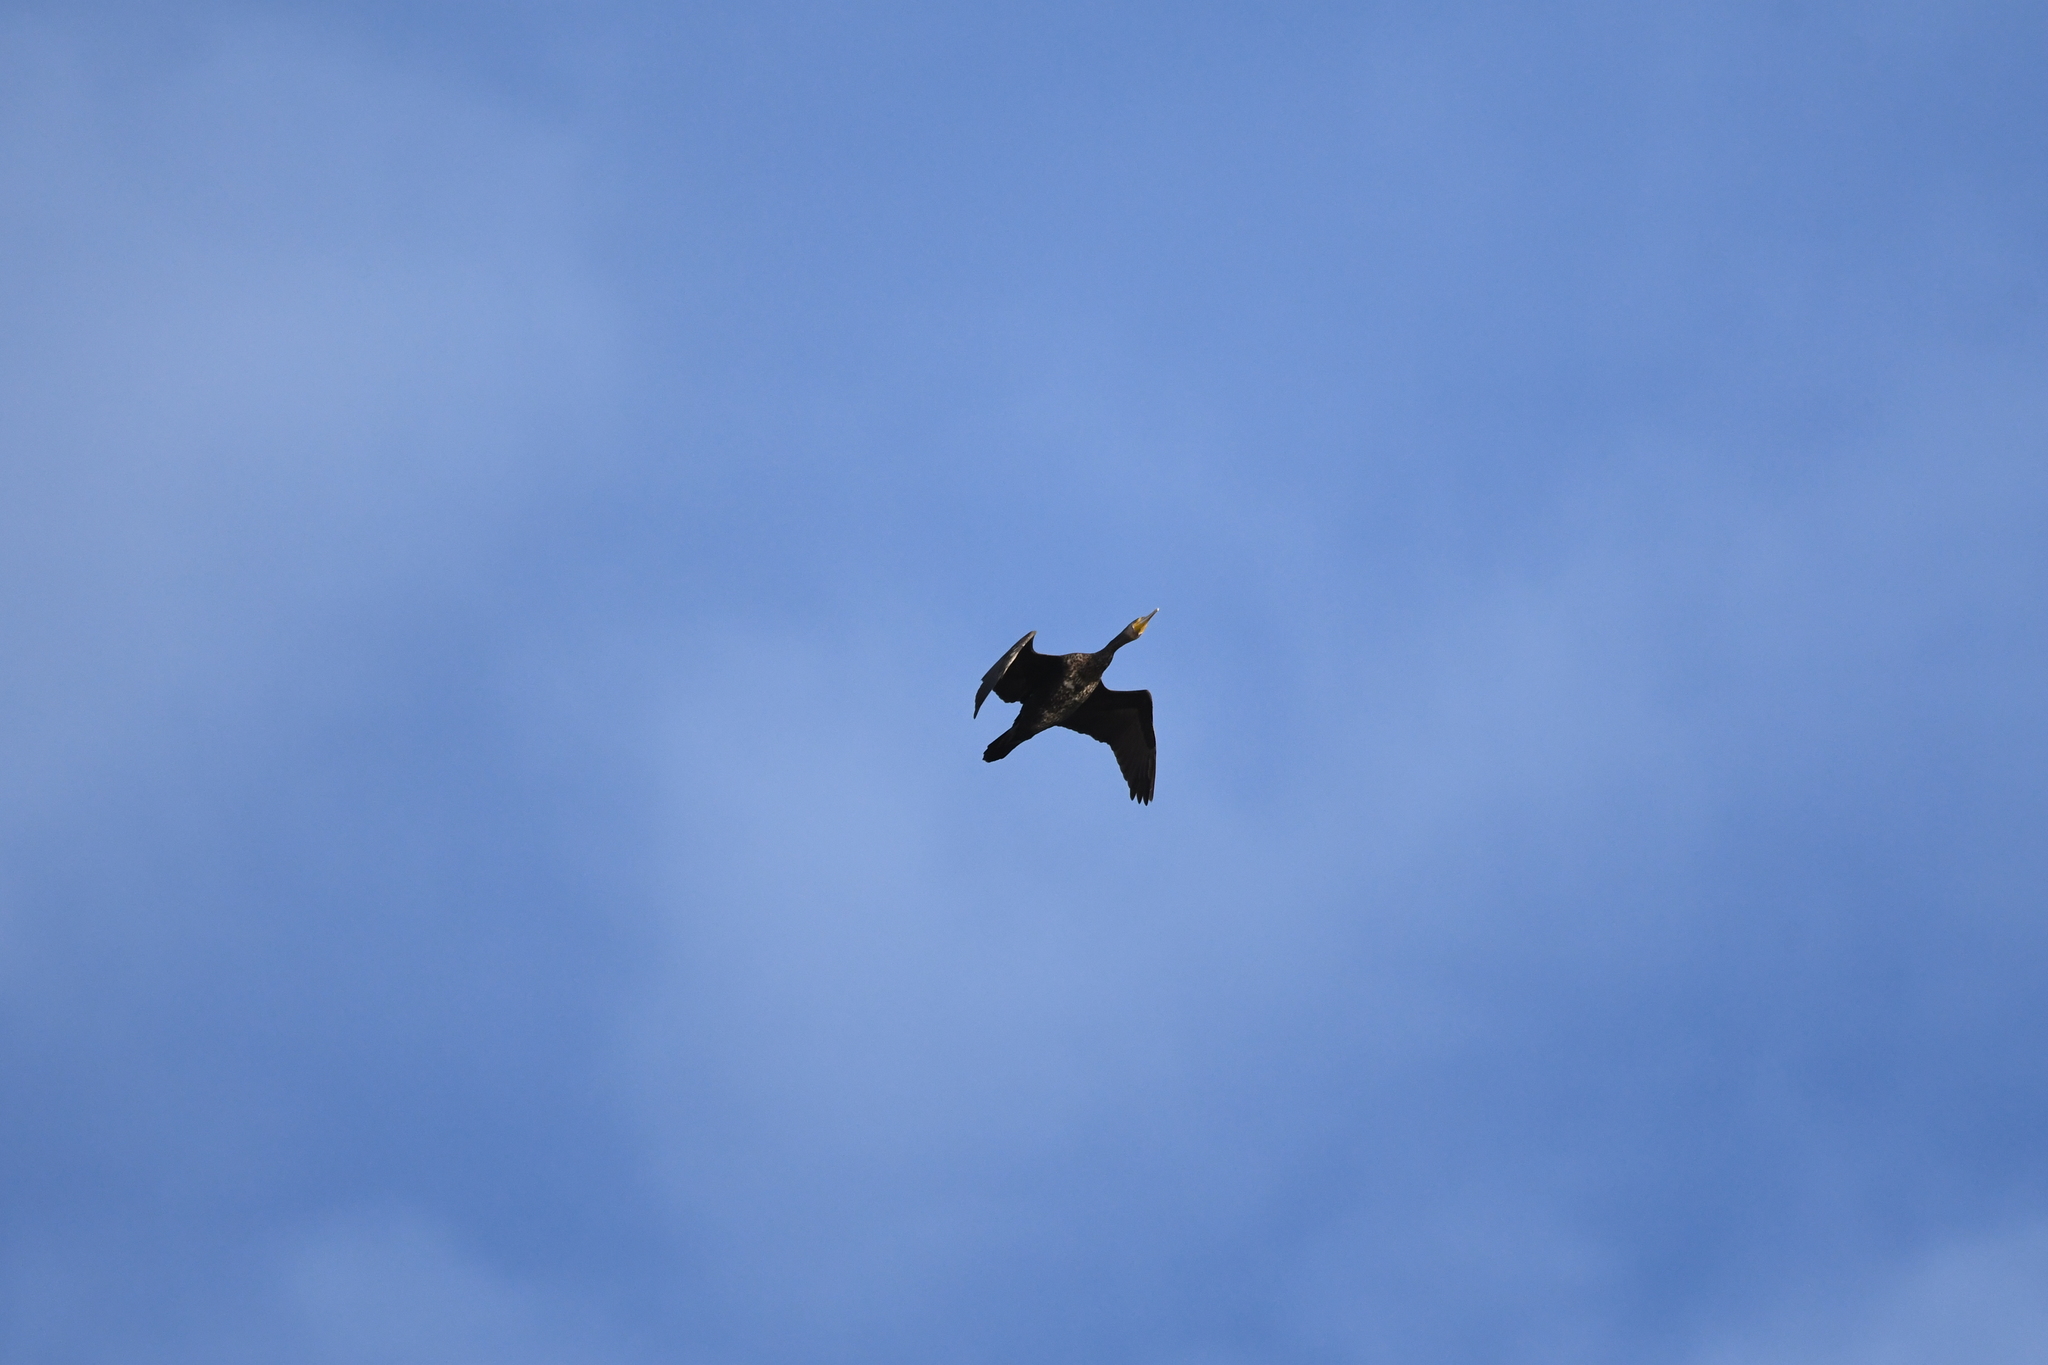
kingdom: Animalia
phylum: Chordata
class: Aves
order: Suliformes
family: Phalacrocoracidae
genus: Phalacrocorax
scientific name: Phalacrocorax carbo
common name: Great cormorant
